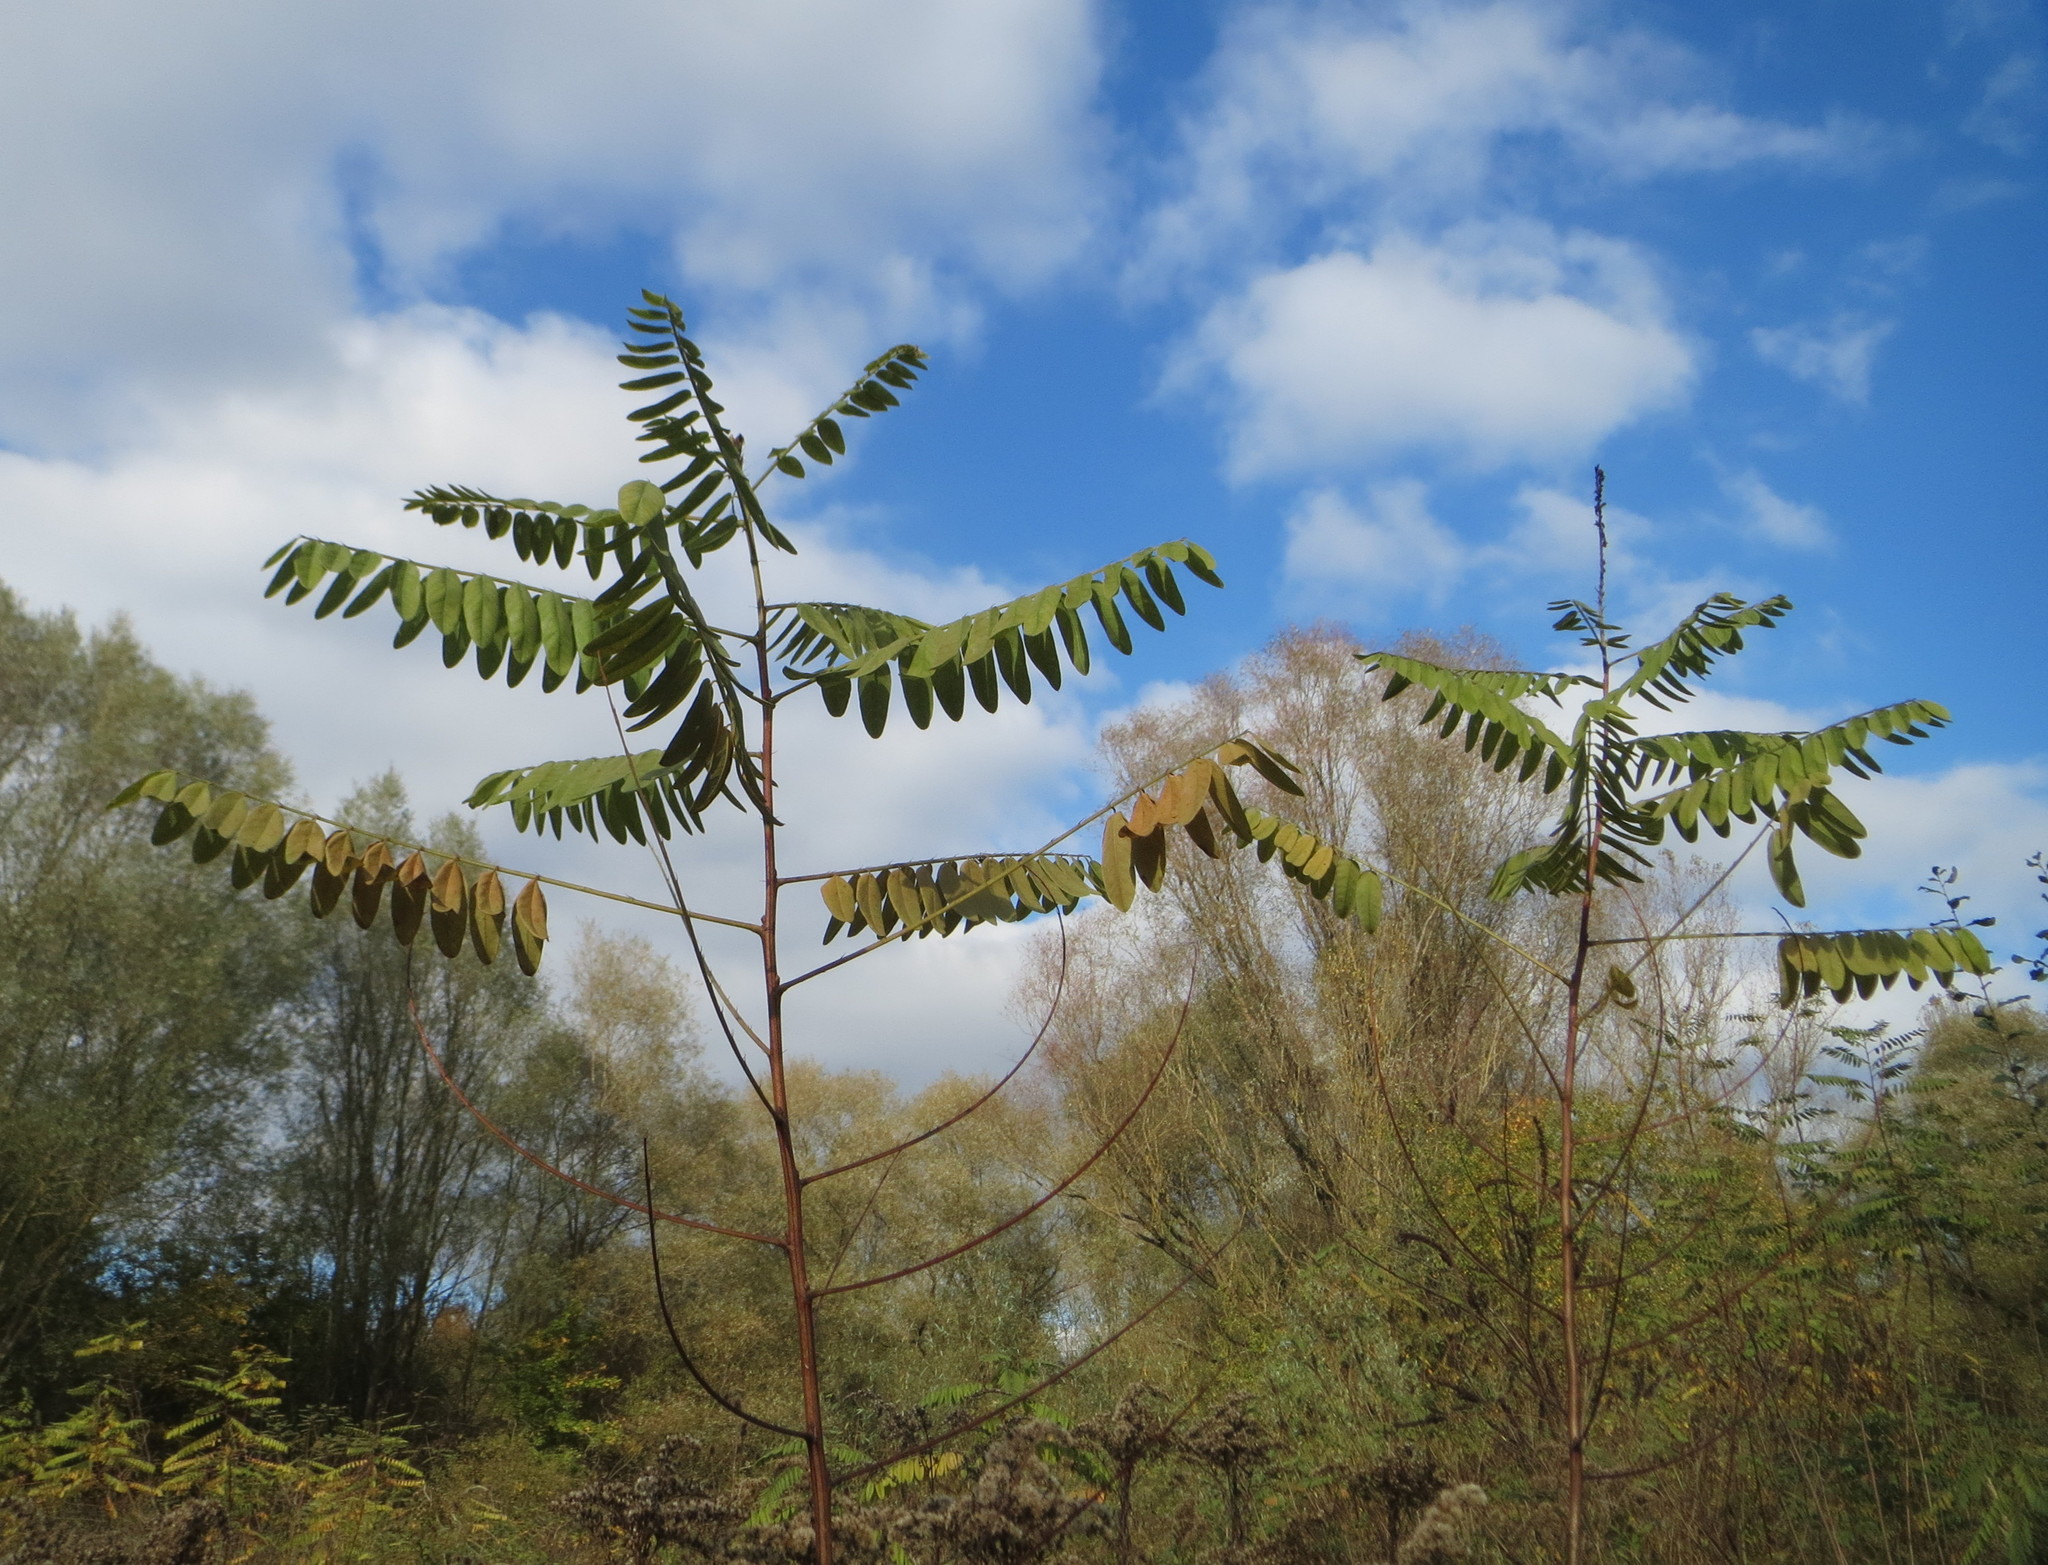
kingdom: Plantae
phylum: Tracheophyta
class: Magnoliopsida
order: Fabales
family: Fabaceae
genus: Amorpha
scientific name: Amorpha fruticosa
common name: False indigo
